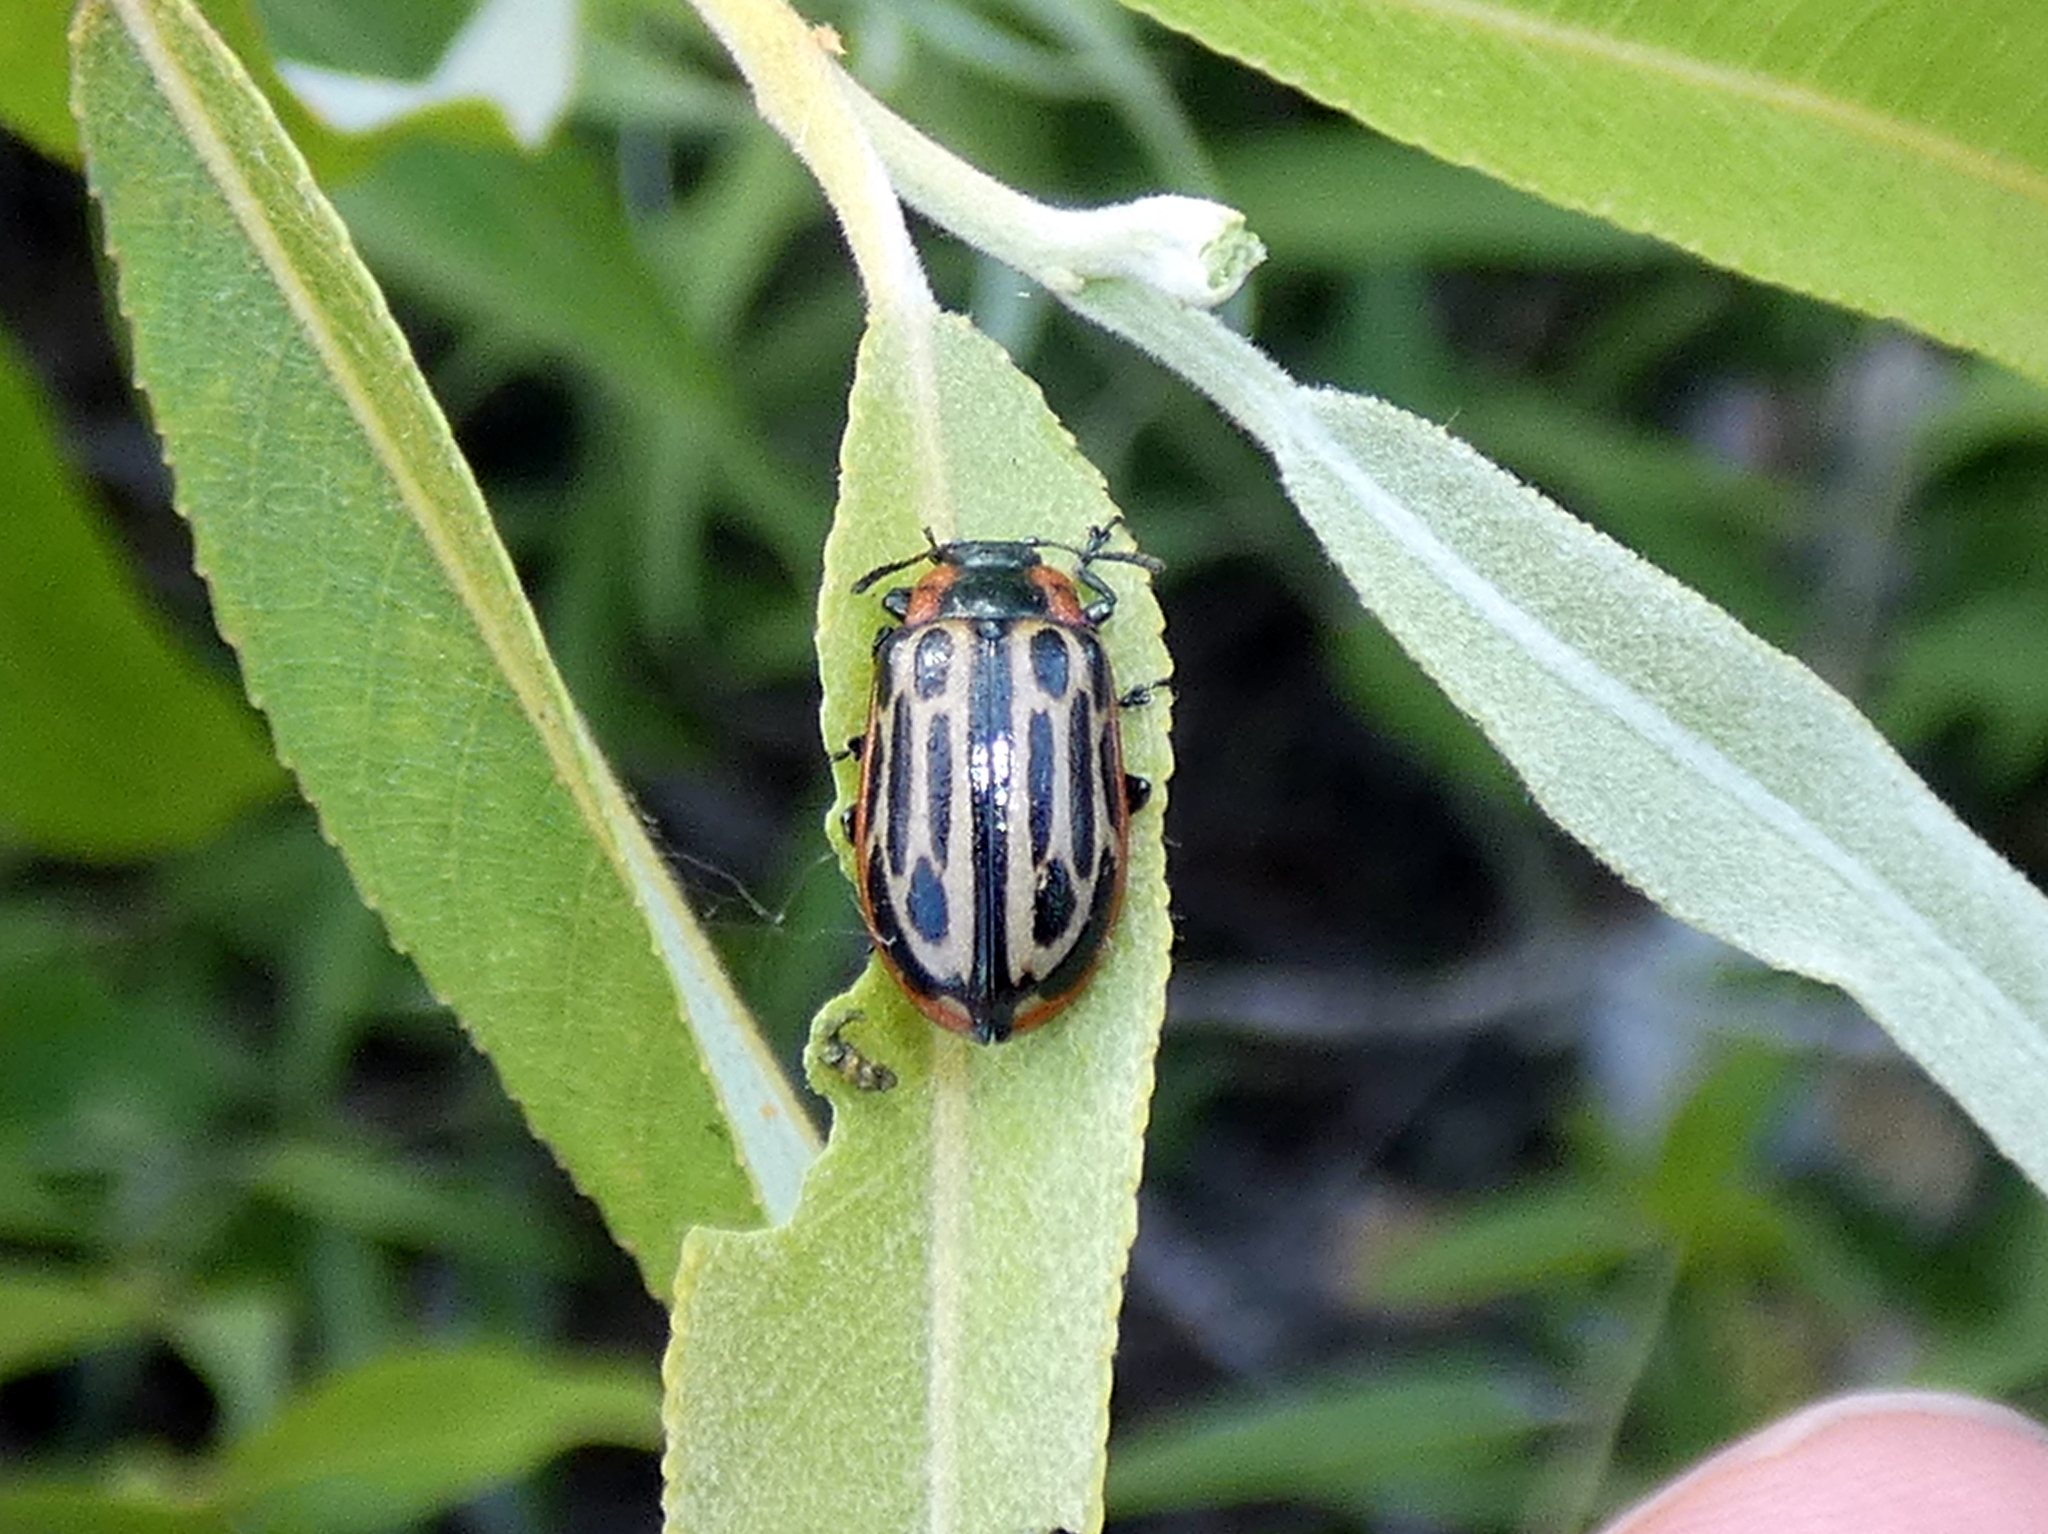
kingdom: Animalia
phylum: Arthropoda
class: Insecta
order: Coleoptera
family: Chrysomelidae
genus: Aethiopocassis
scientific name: Aethiopocassis scripta
